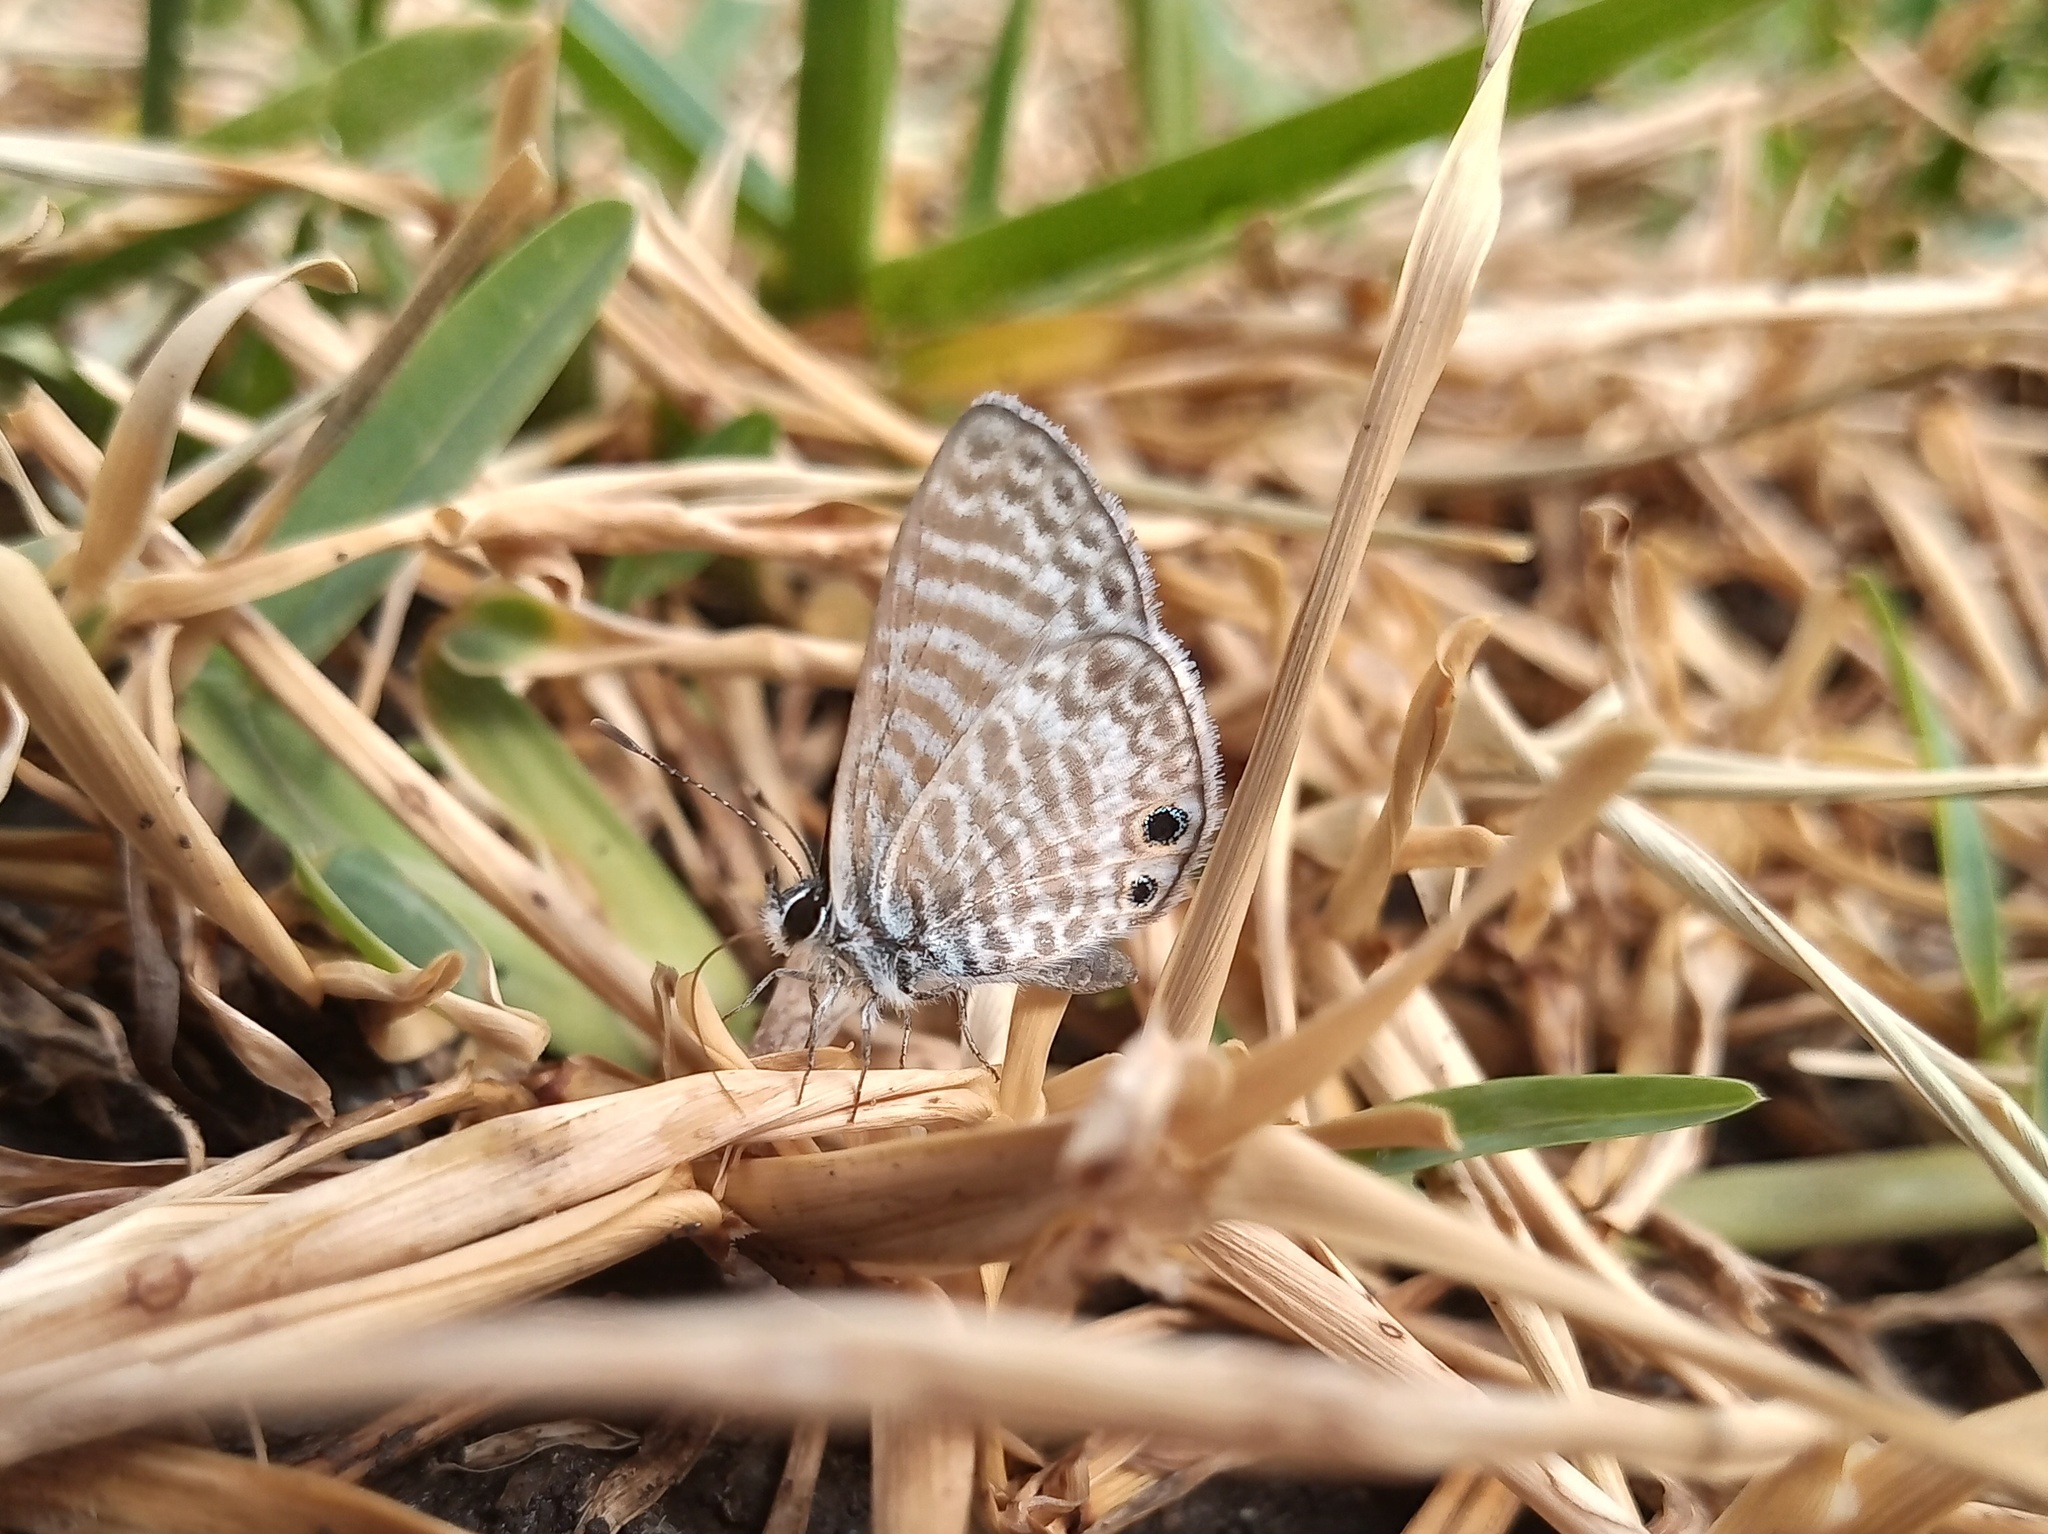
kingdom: Animalia
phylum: Arthropoda
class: Insecta
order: Lepidoptera
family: Lycaenidae
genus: Leptotes
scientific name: Leptotes marina
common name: Marine blue
